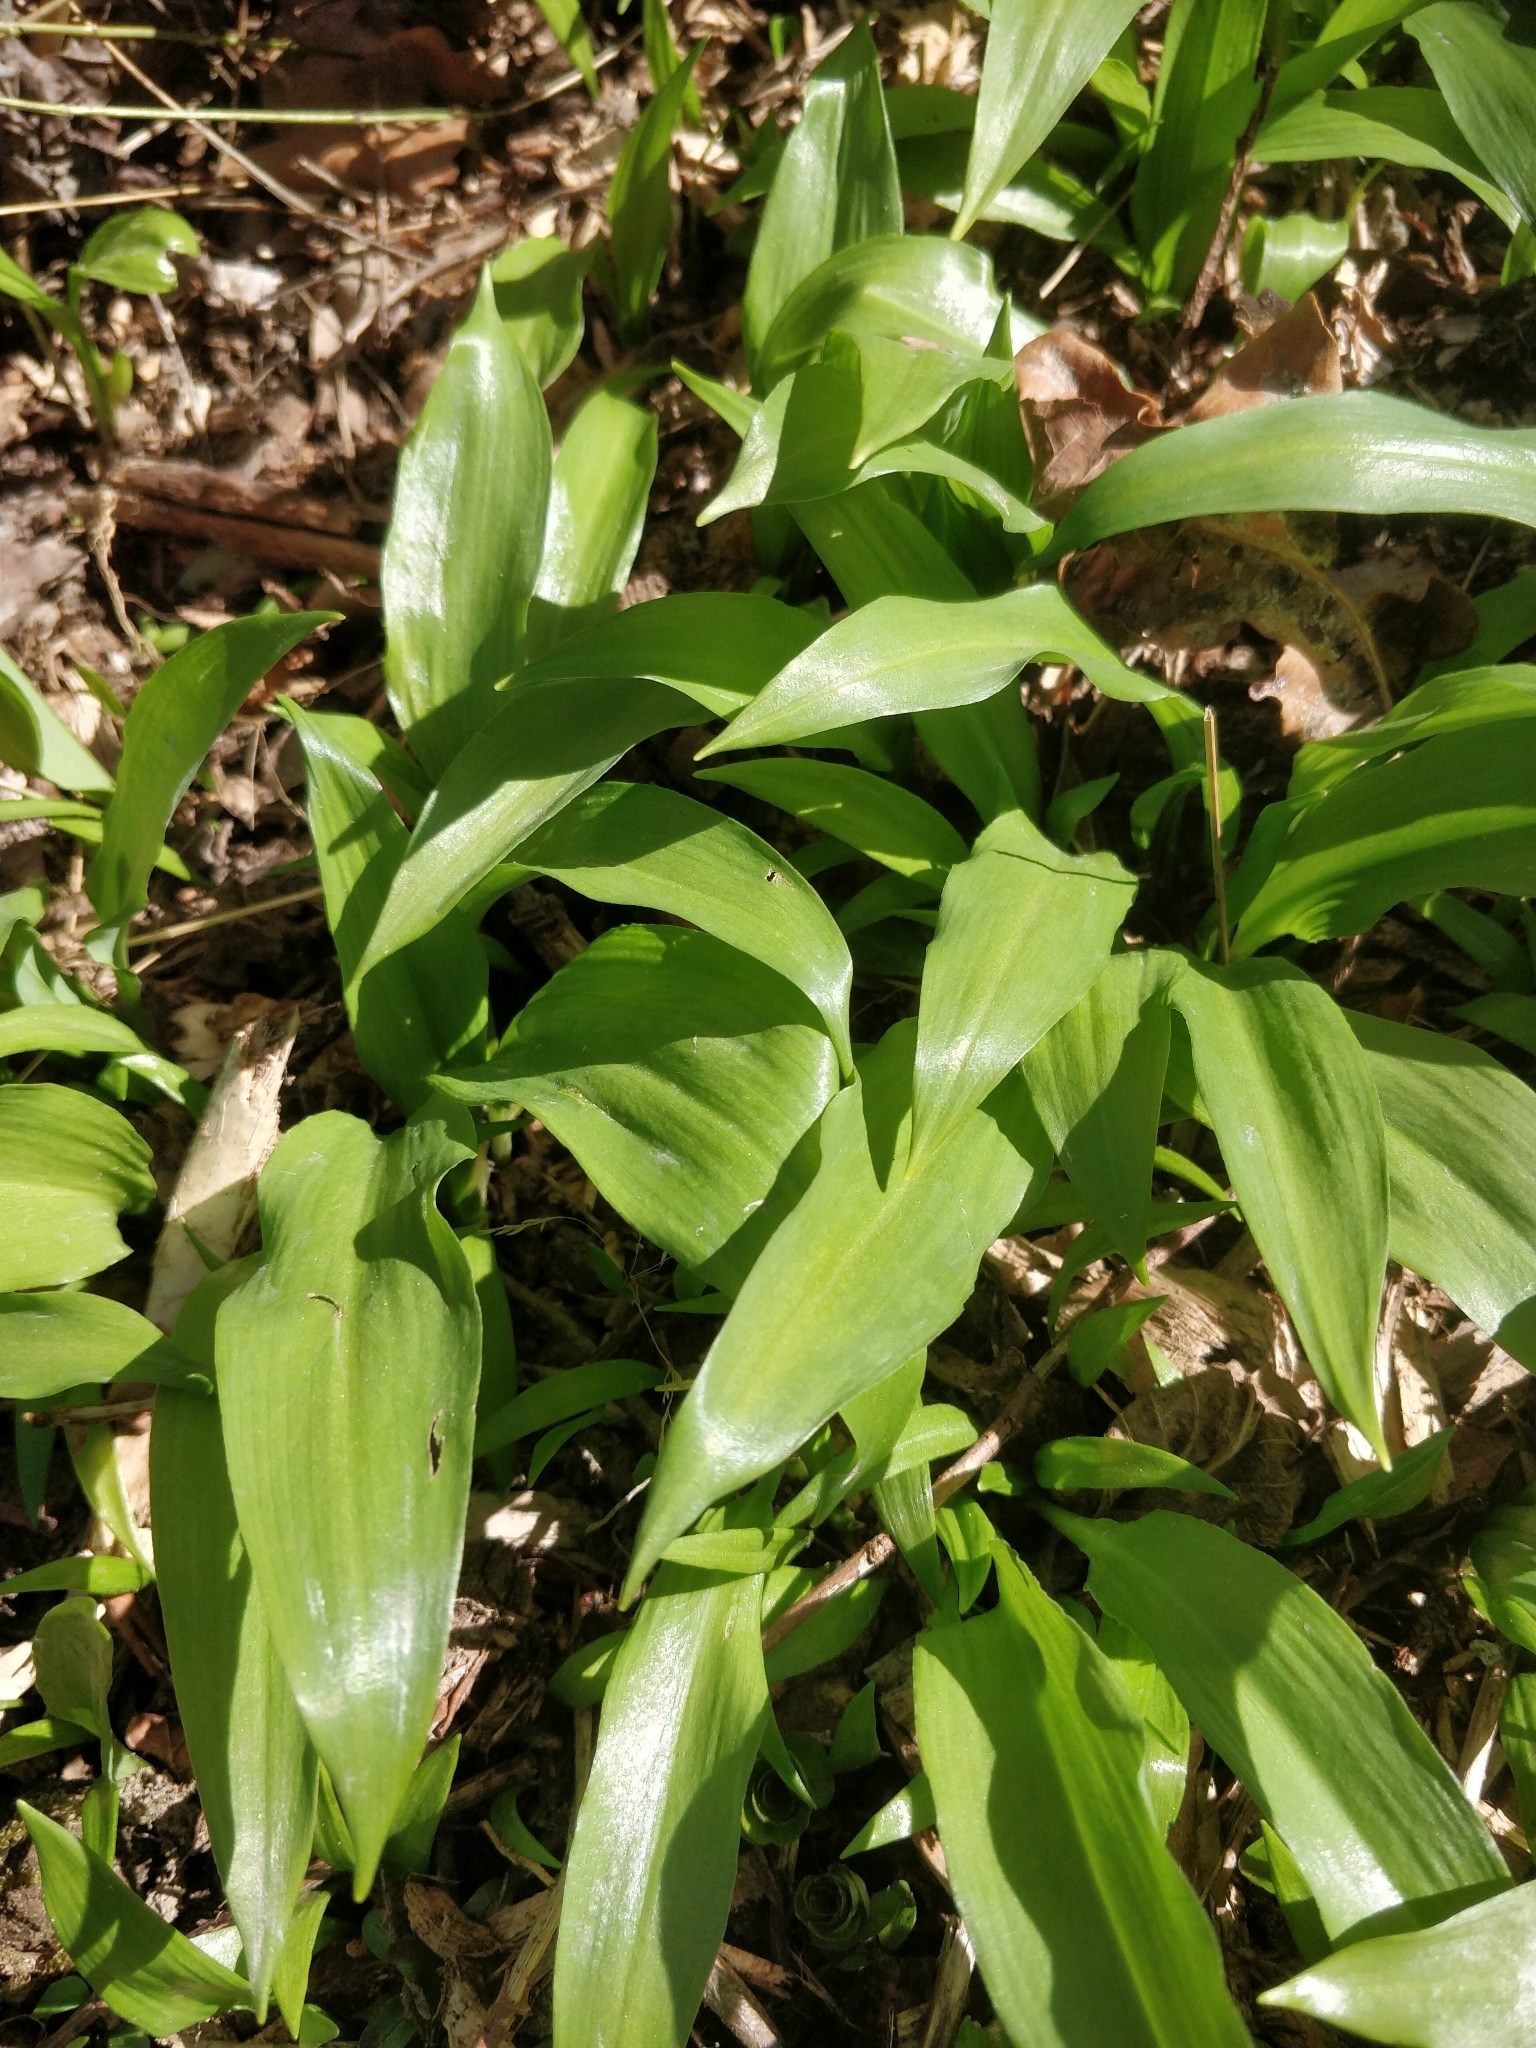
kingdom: Plantae
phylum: Tracheophyta
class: Liliopsida
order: Asparagales
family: Amaryllidaceae
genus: Allium
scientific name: Allium ursinum
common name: Ramsons
